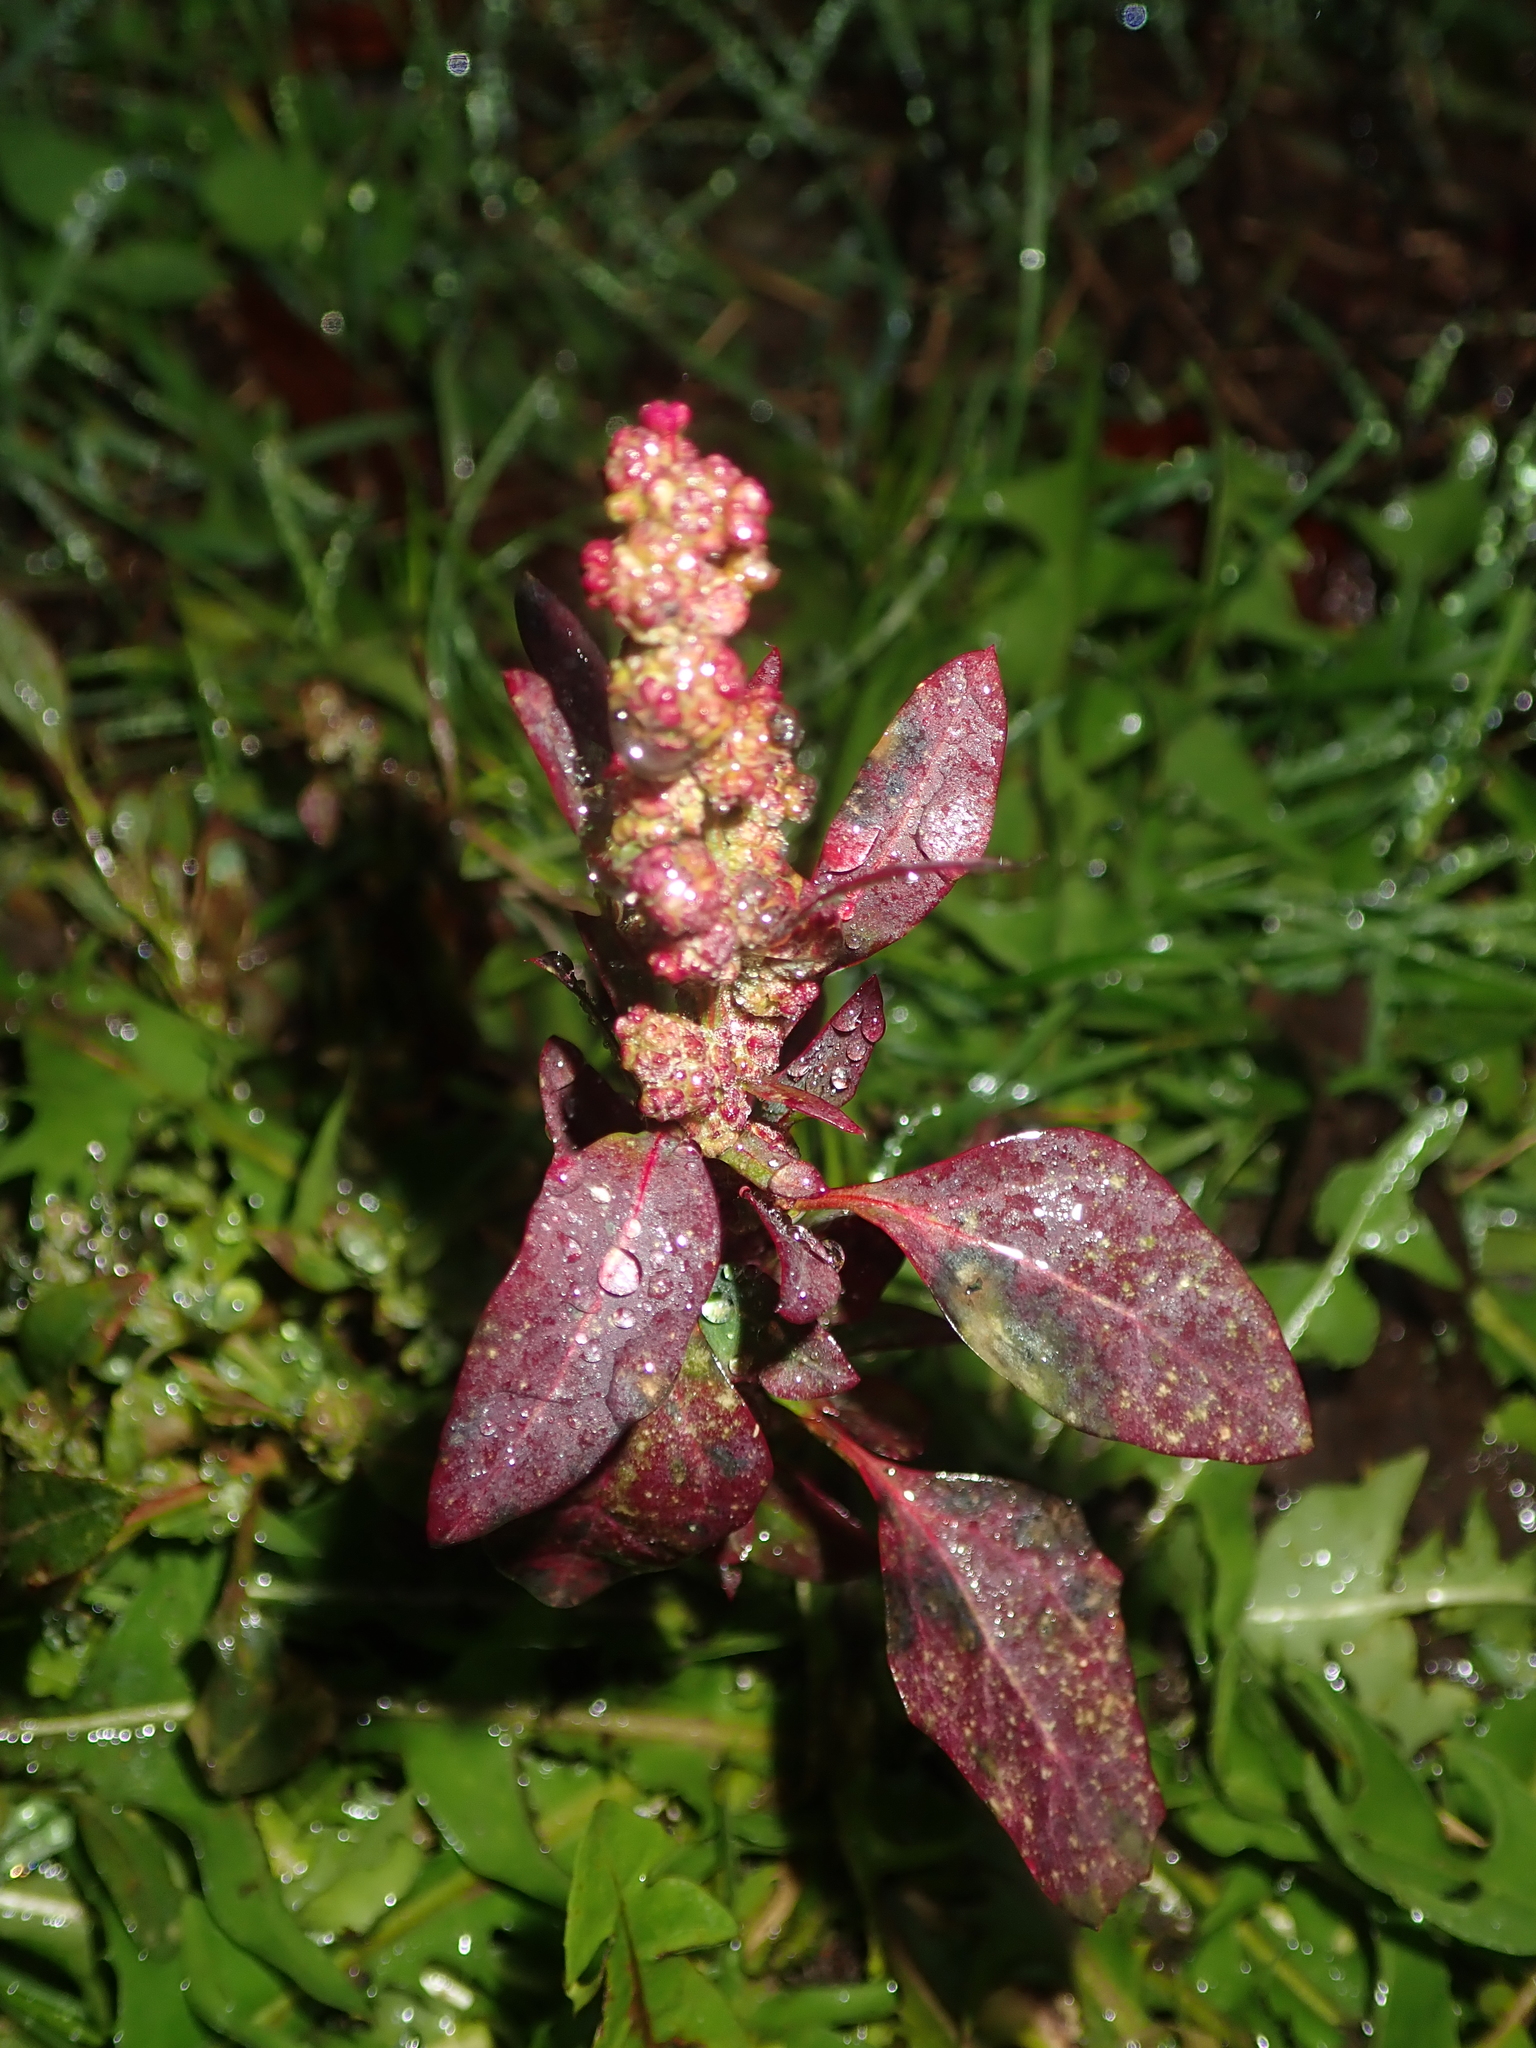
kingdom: Plantae
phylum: Tracheophyta
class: Magnoliopsida
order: Caryophyllales
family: Amaranthaceae
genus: Chenopodium
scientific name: Chenopodium album
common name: Fat-hen
